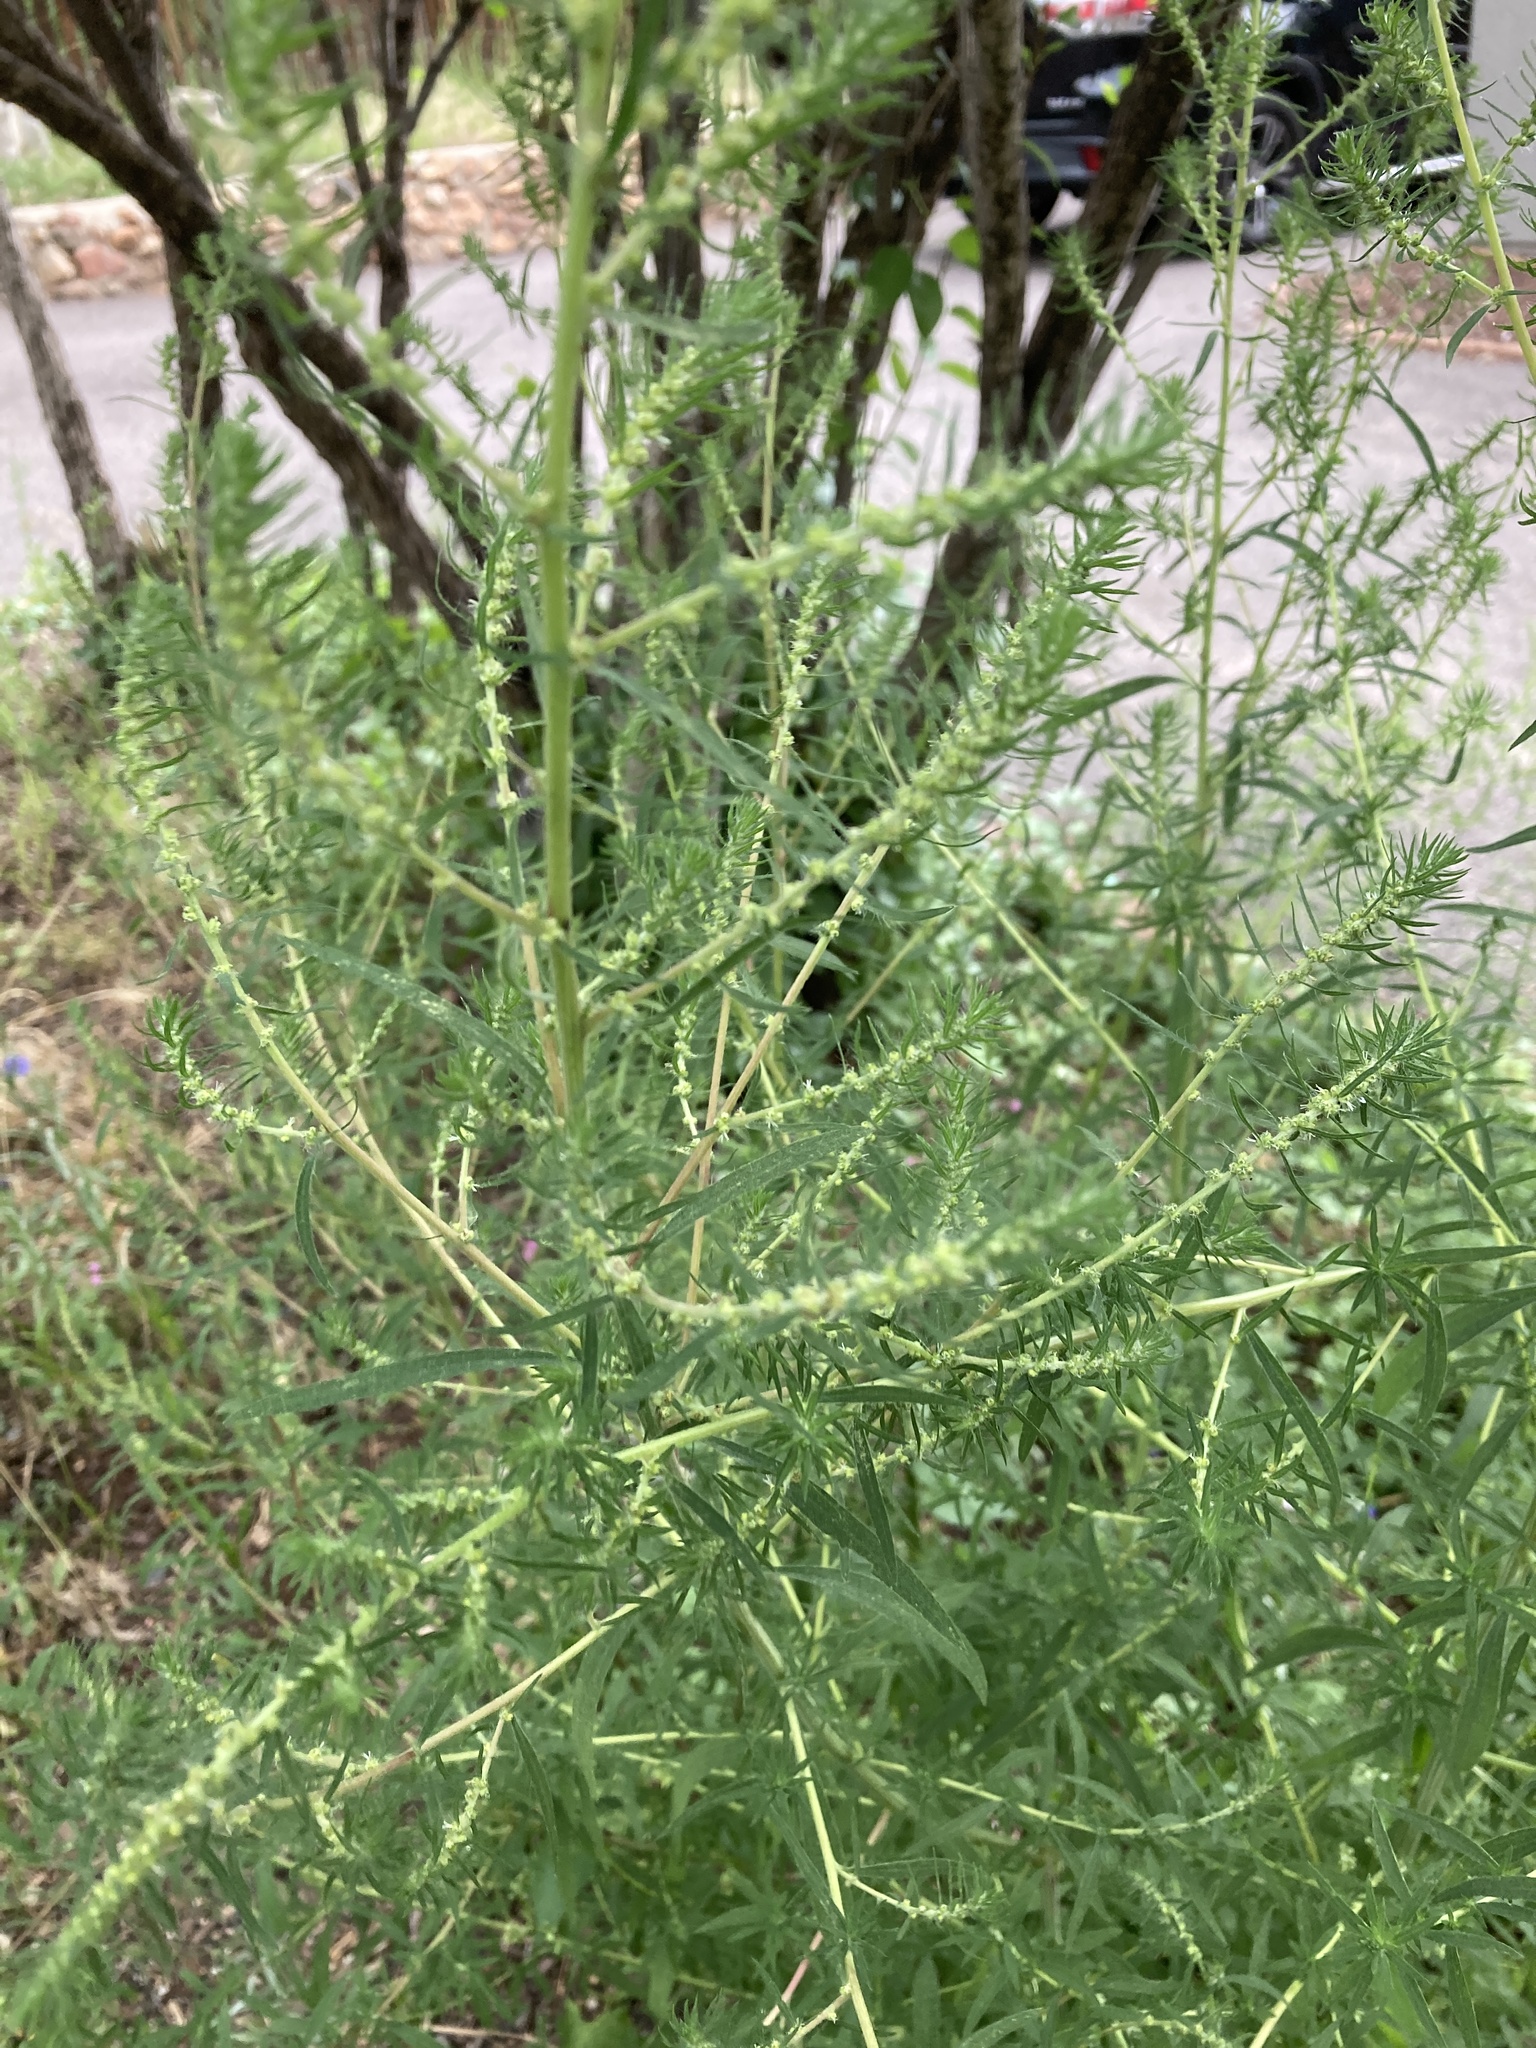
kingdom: Plantae
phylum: Tracheophyta
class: Magnoliopsida
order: Caryophyllales
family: Amaranthaceae
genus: Bassia
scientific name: Bassia scoparia
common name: Belvedere
